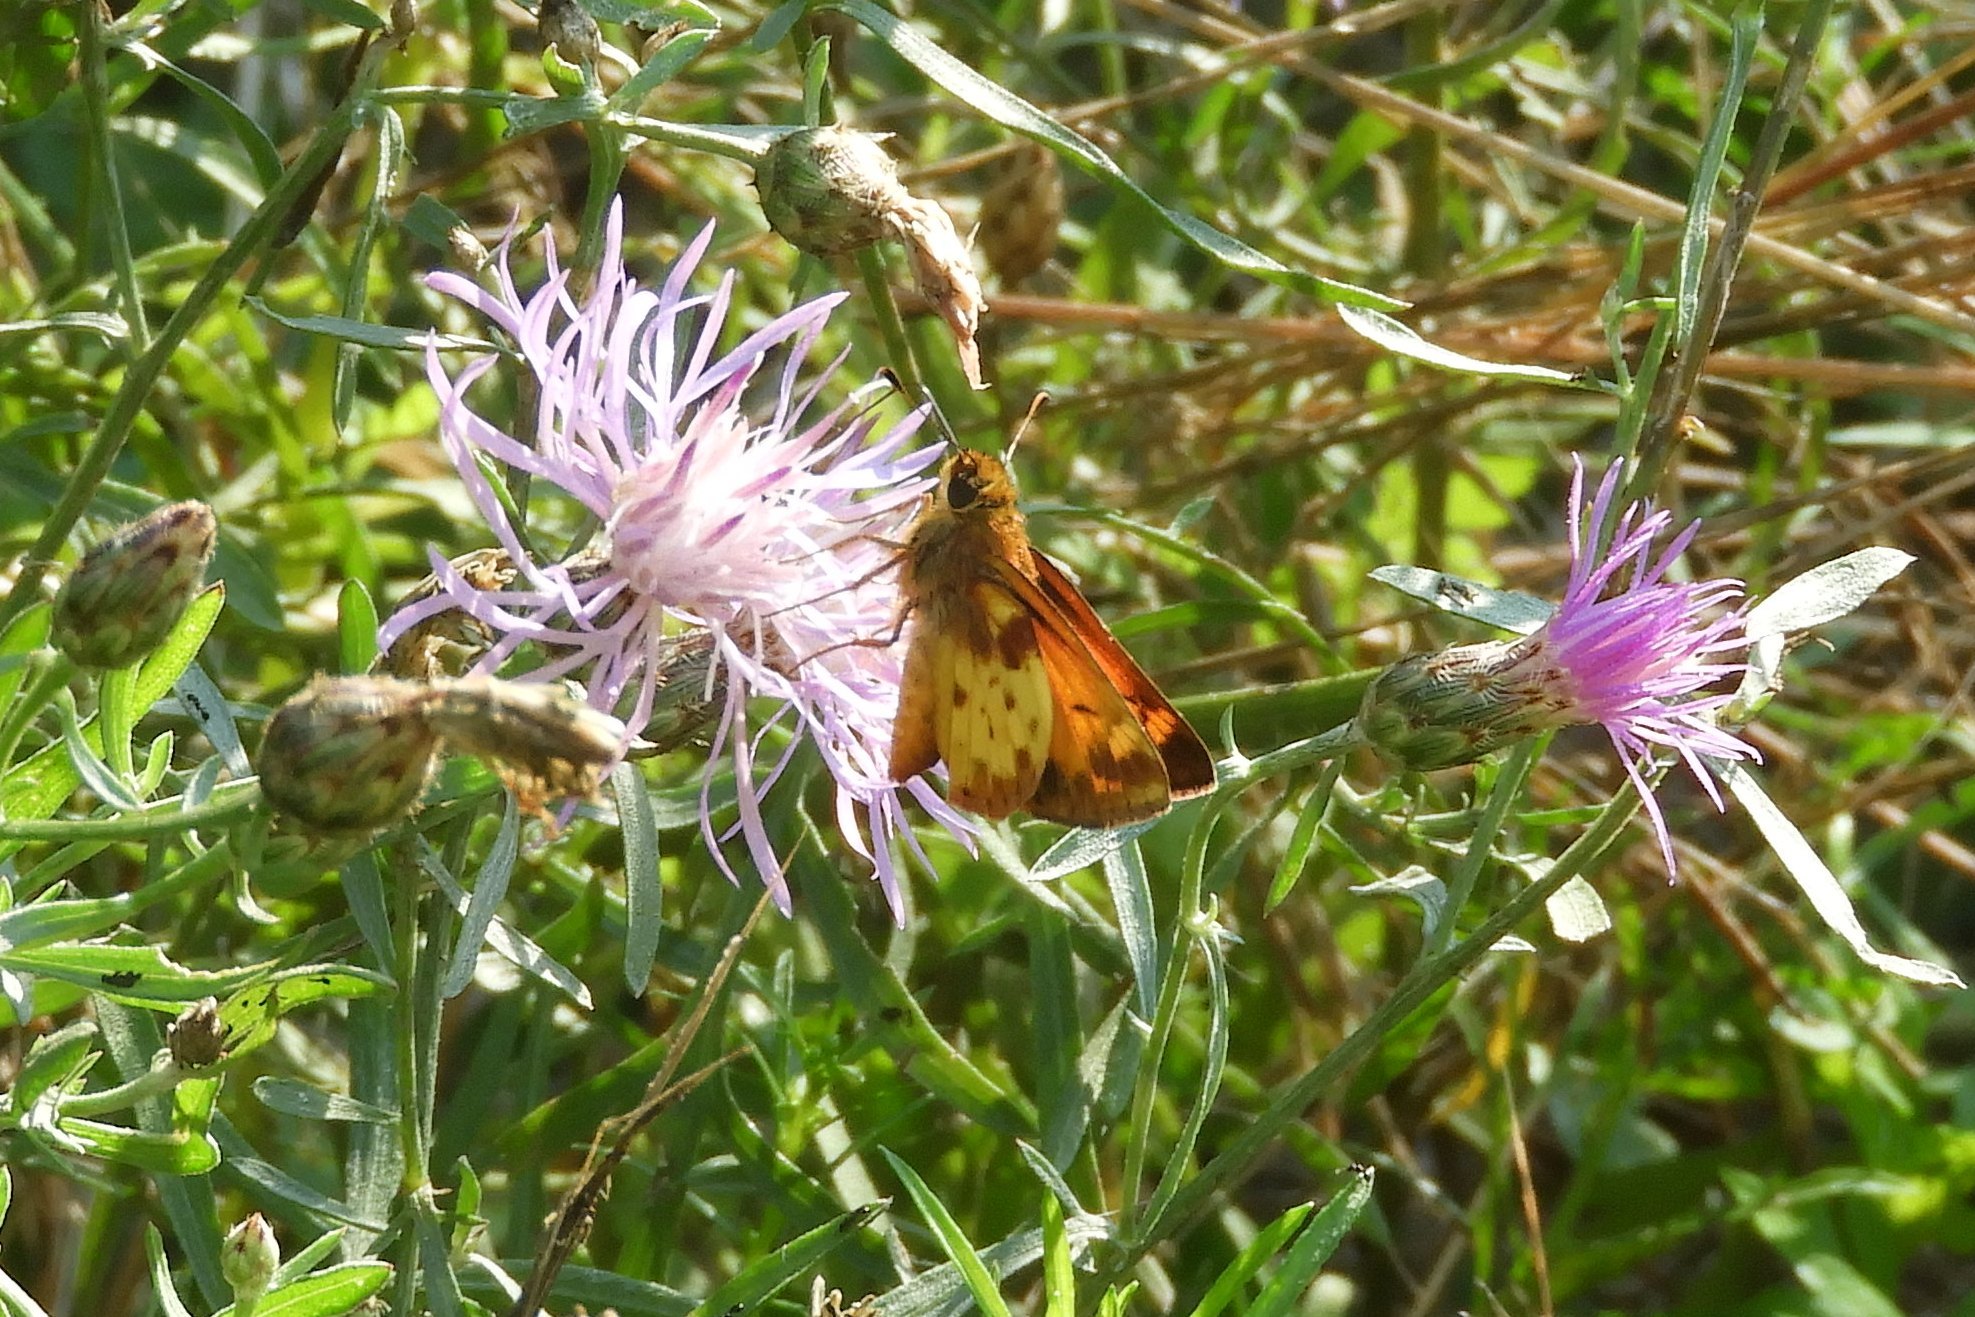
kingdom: Animalia
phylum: Arthropoda
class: Insecta
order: Lepidoptera
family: Hesperiidae
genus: Lon
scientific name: Lon zabulon
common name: Zabulon skipper
